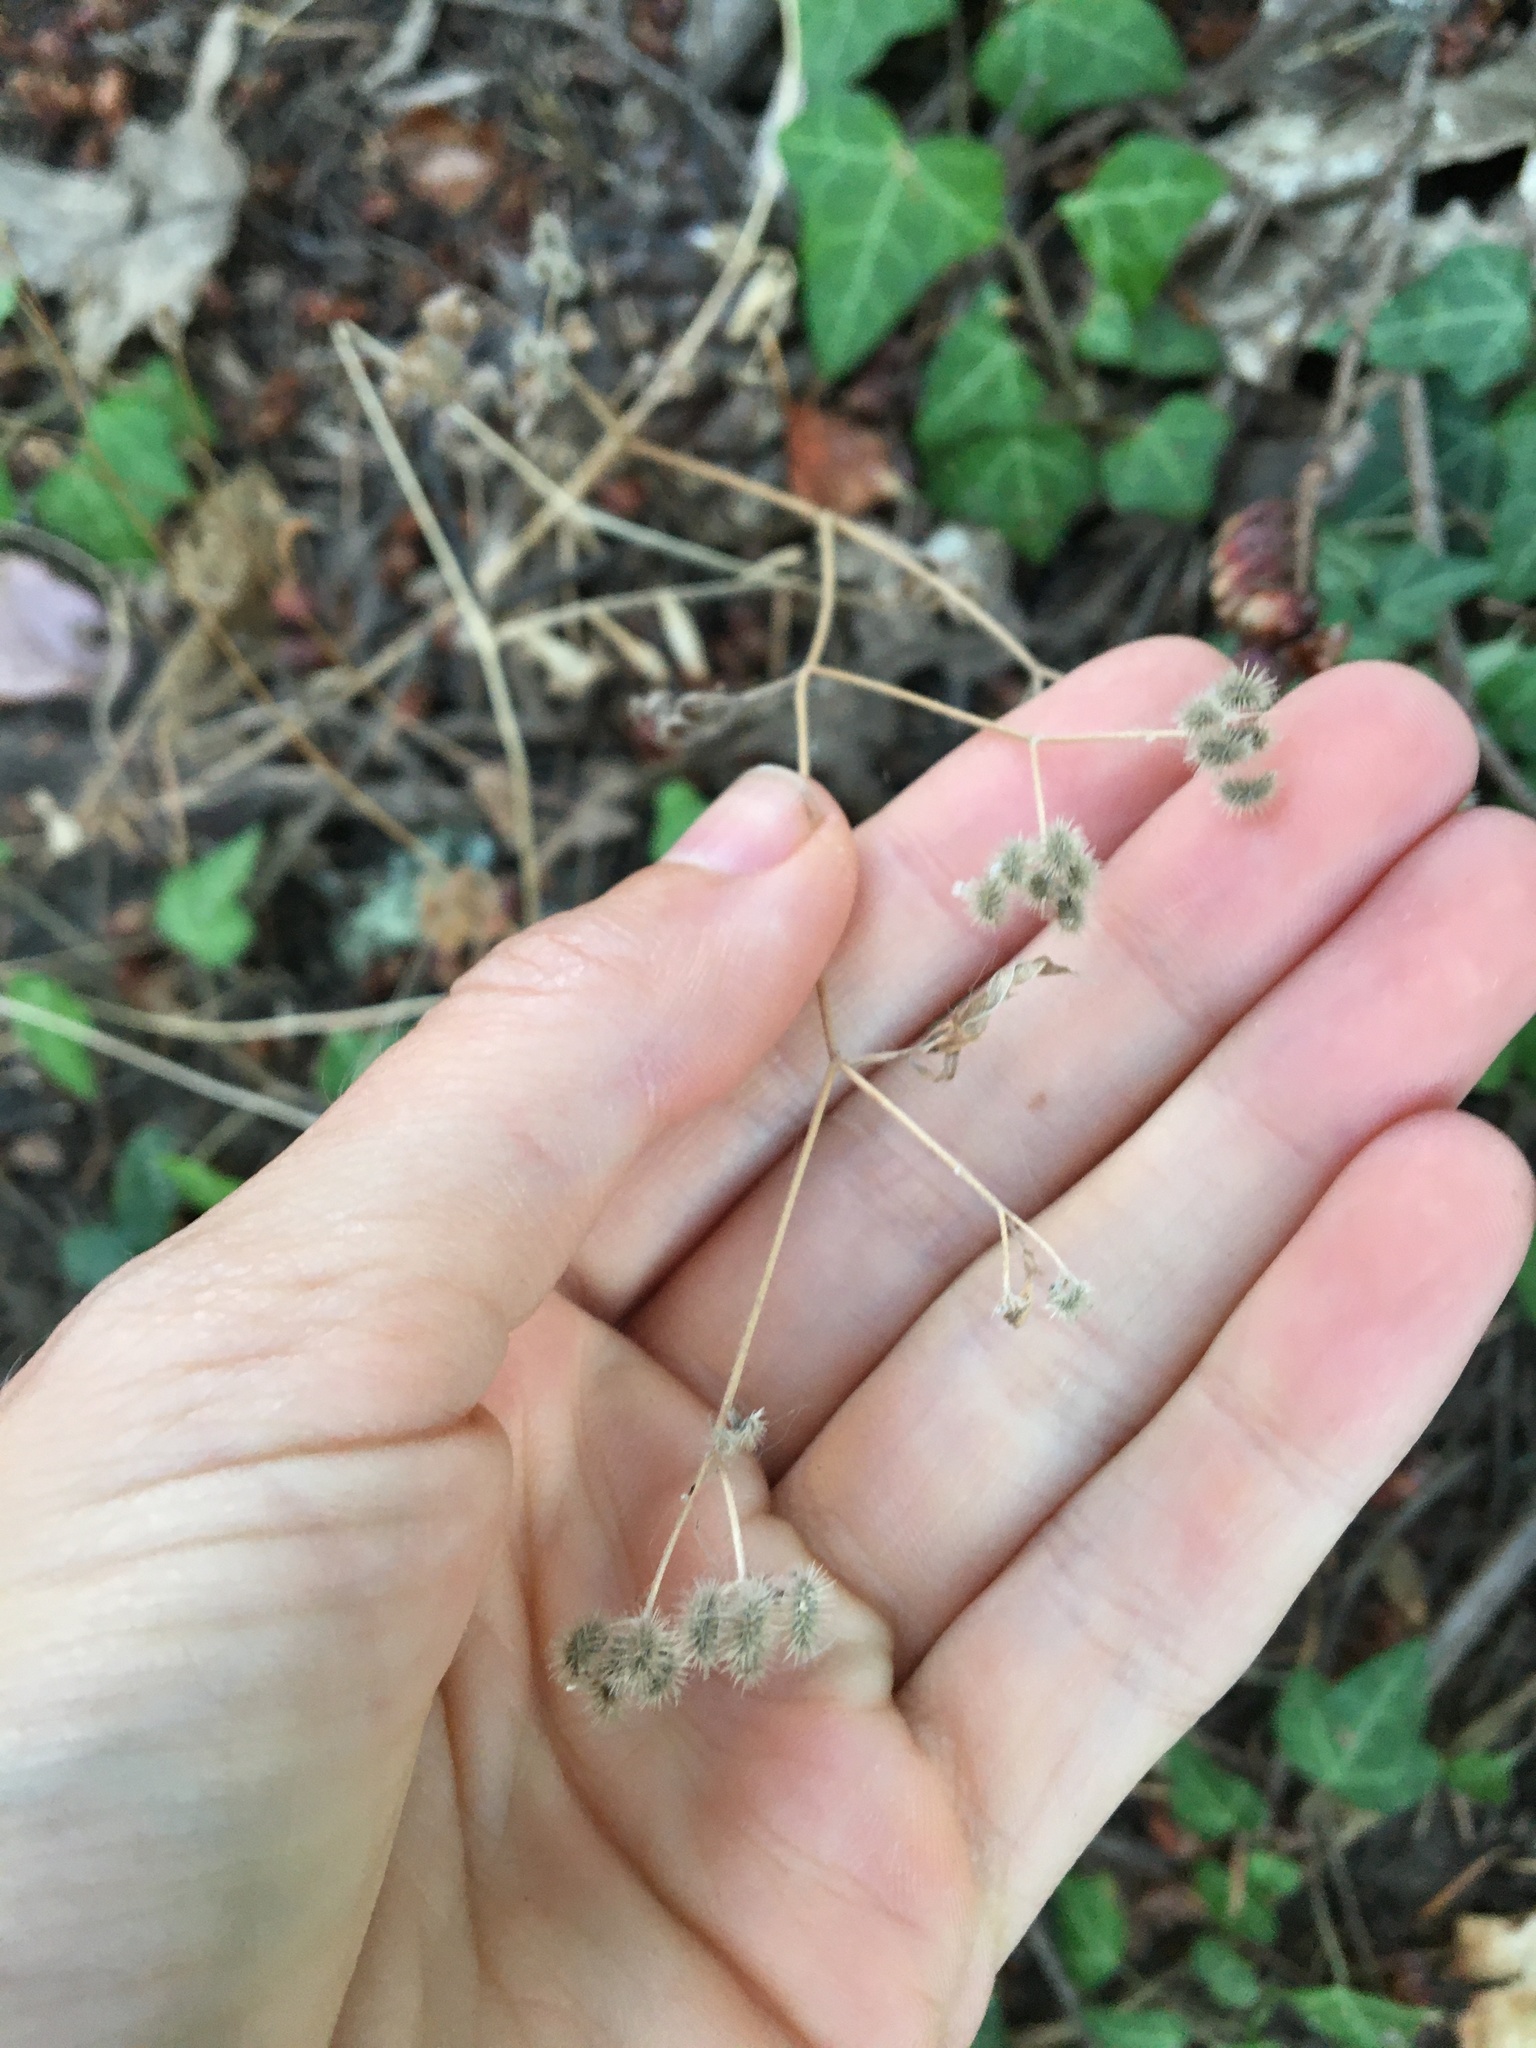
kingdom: Plantae
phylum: Tracheophyta
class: Magnoliopsida
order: Apiales
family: Apiaceae
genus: Torilis
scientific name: Torilis arvensis
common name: Spreading hedge-parsley
